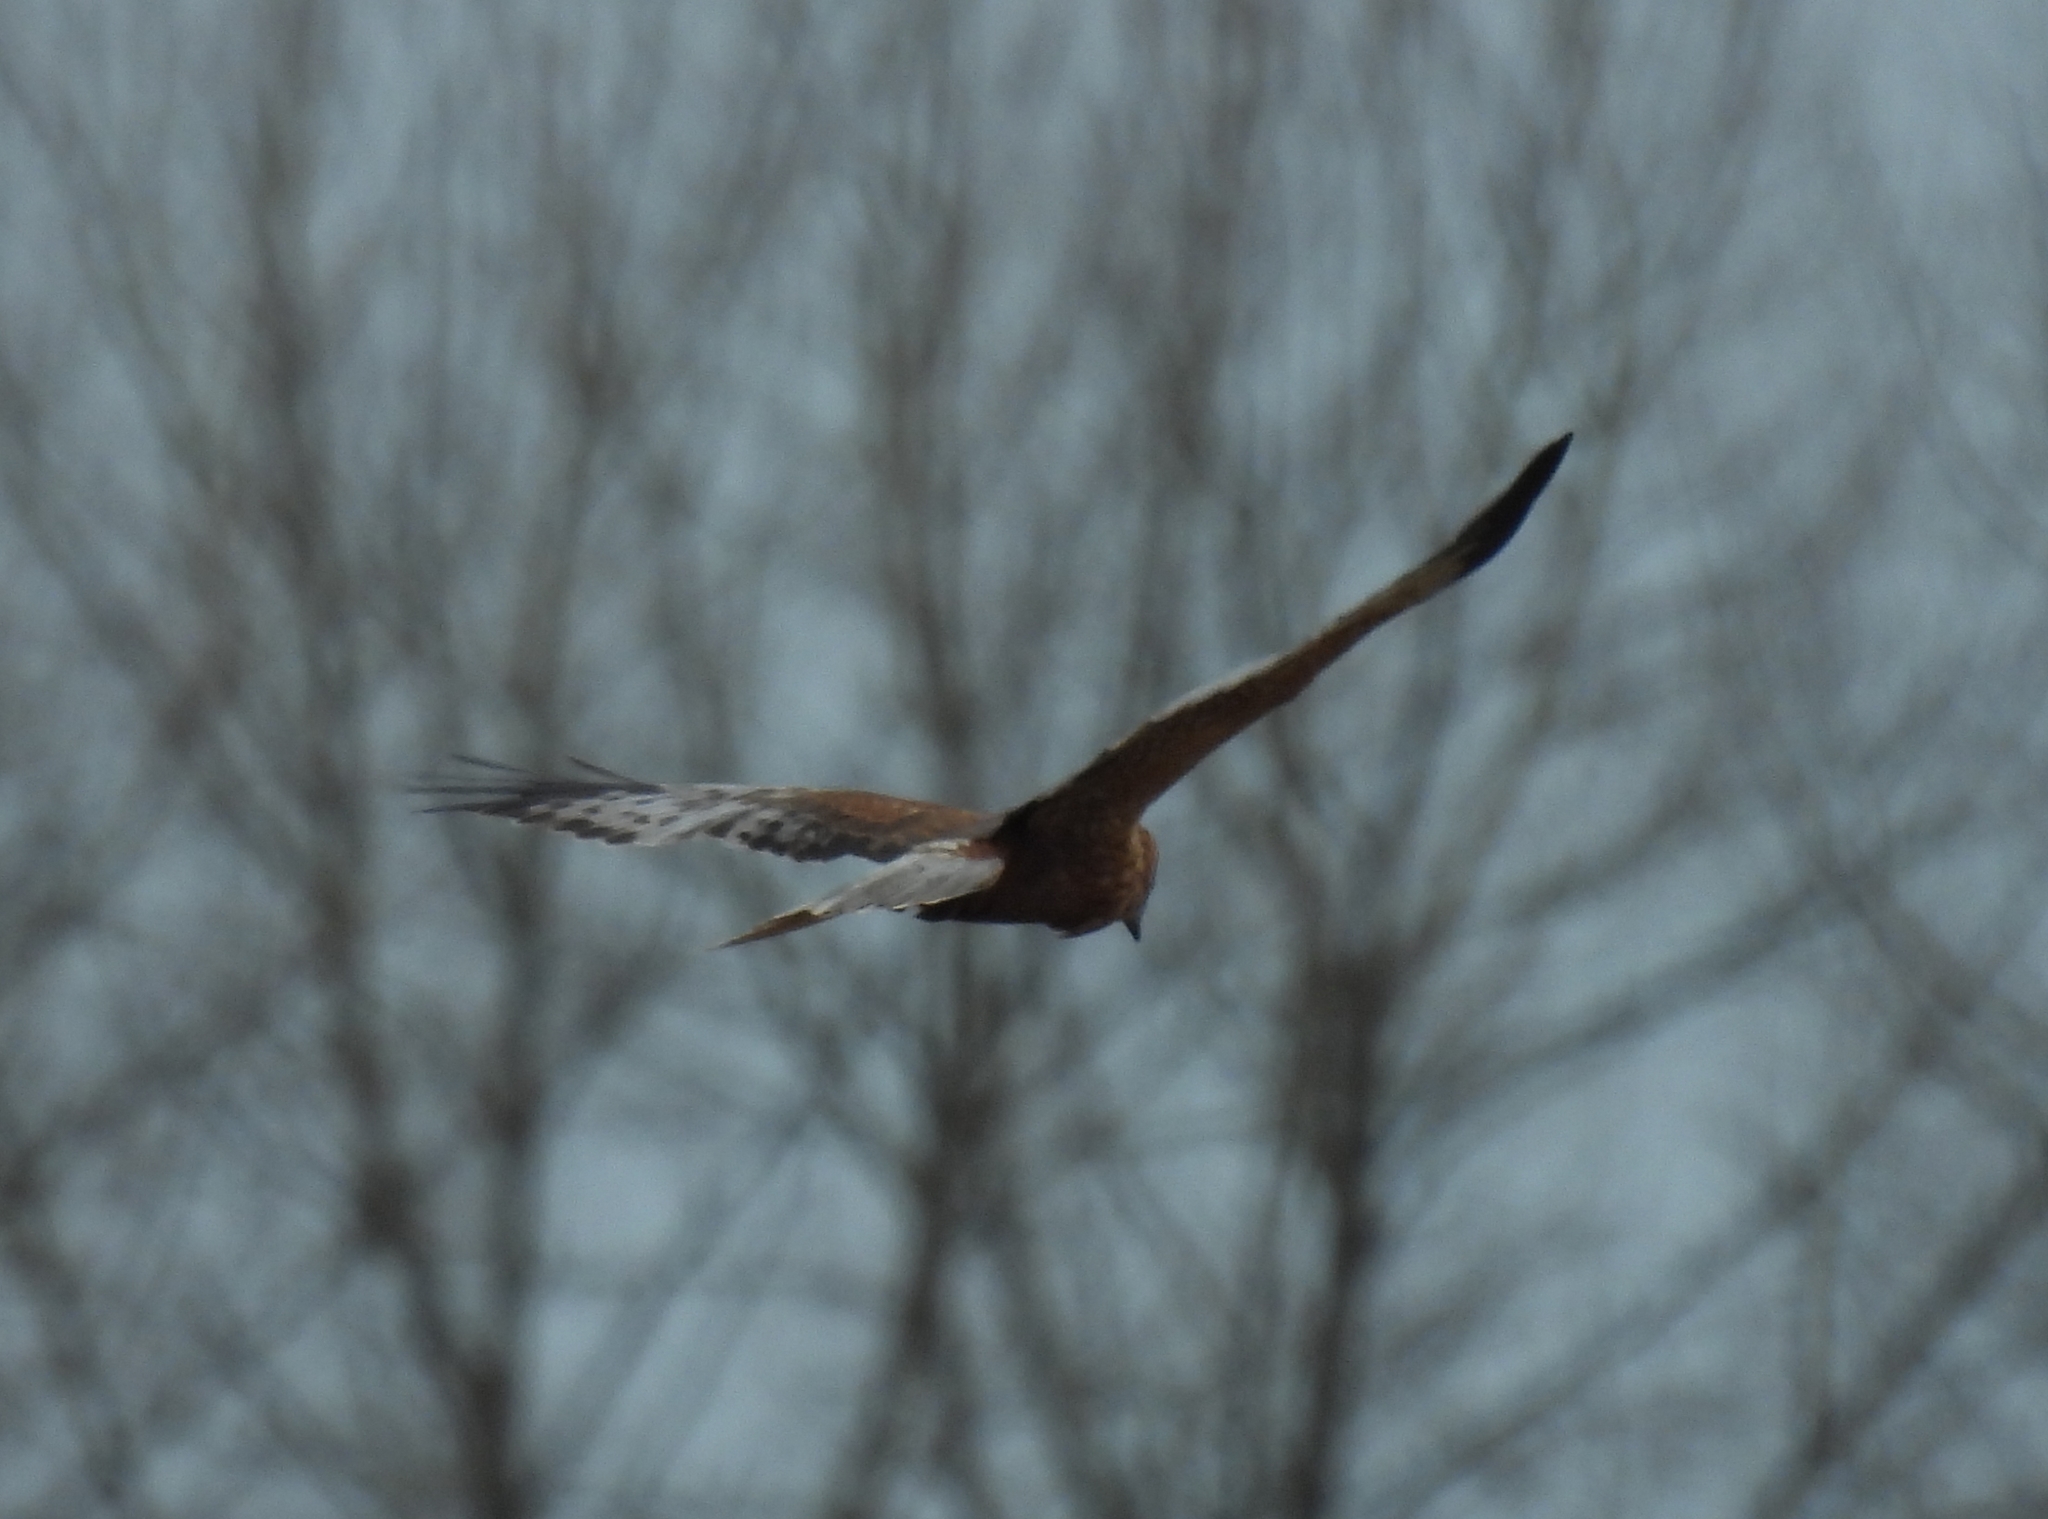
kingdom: Animalia
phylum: Chordata
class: Aves
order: Accipitriformes
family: Accipitridae
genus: Circus
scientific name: Circus aeruginosus
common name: Western marsh harrier
